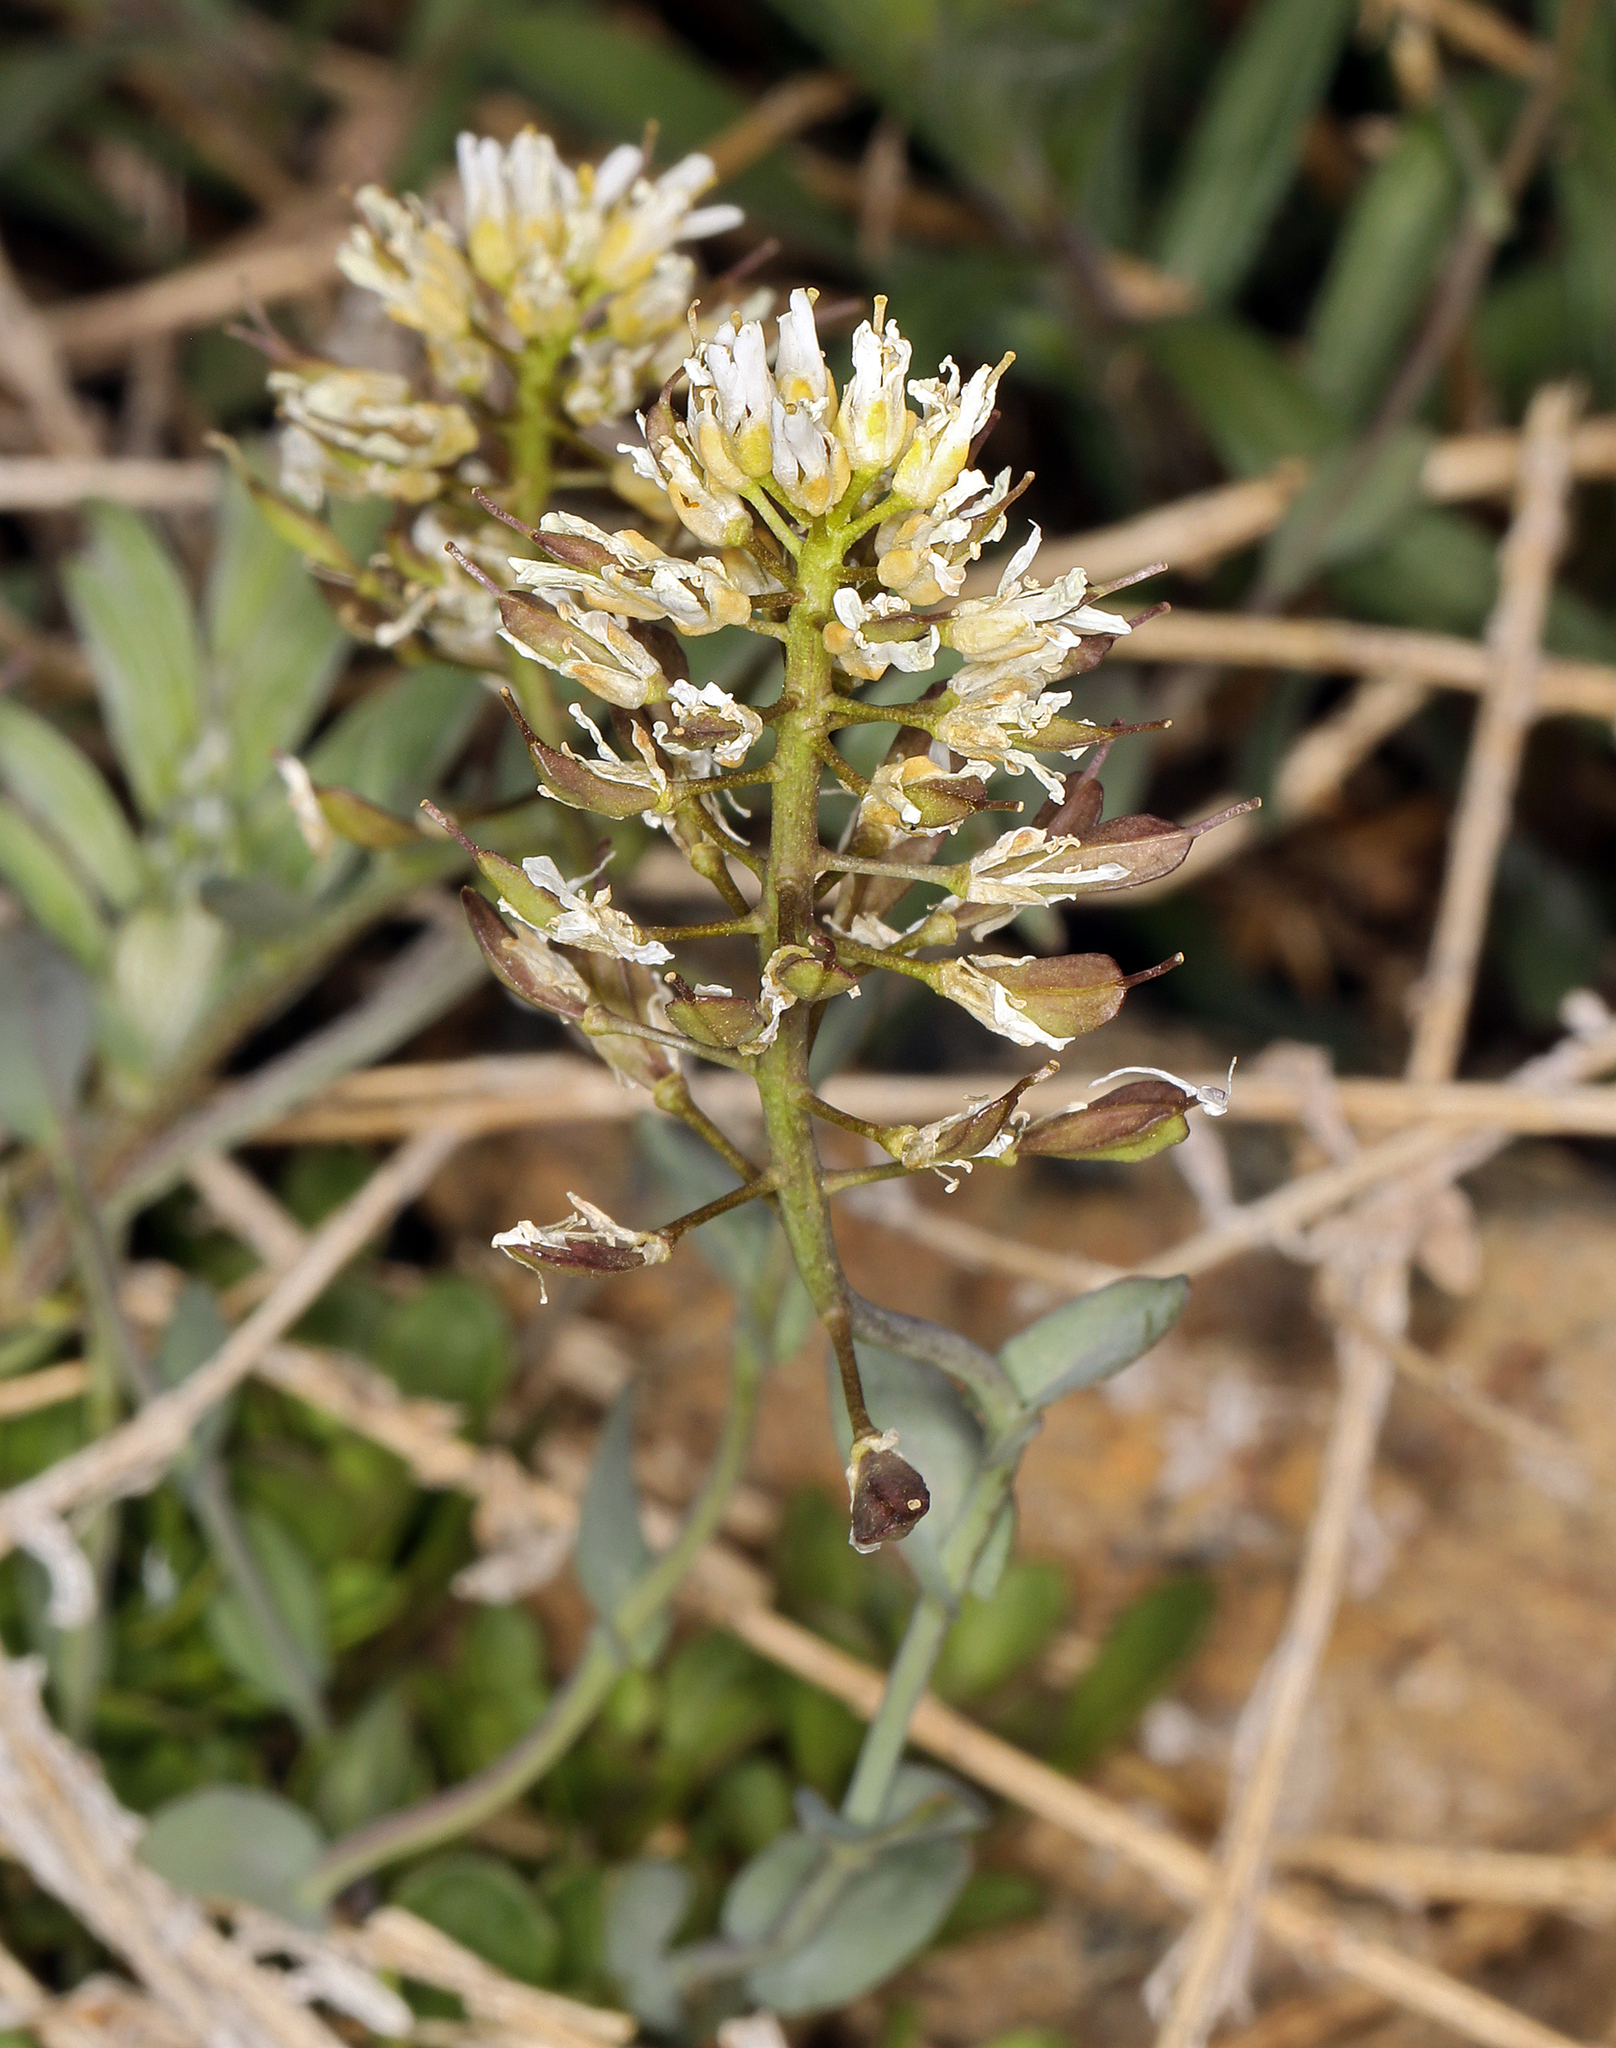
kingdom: Plantae
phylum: Tracheophyta
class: Magnoliopsida
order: Brassicales
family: Brassicaceae
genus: Noccaea
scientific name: Noccaea fendleri
